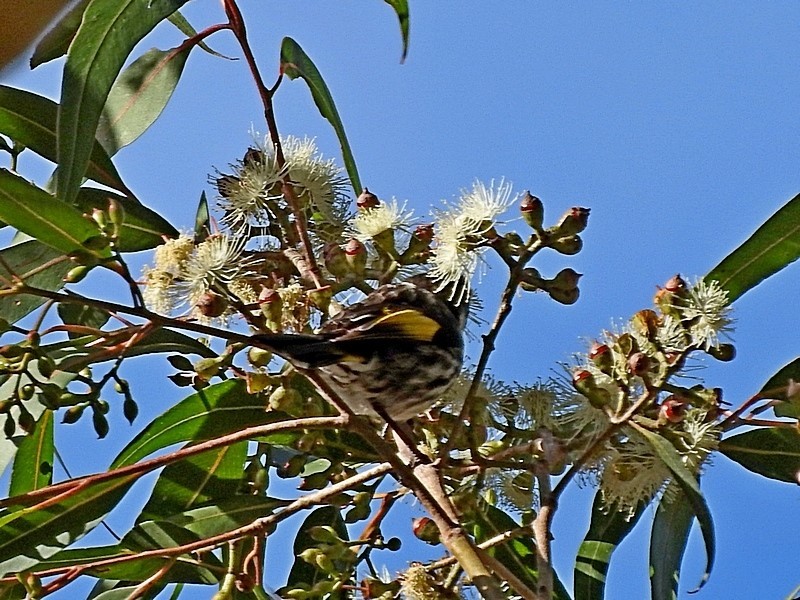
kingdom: Animalia
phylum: Chordata
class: Aves
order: Passeriformes
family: Meliphagidae
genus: Phylidonyris
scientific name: Phylidonyris novaehollandiae
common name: New holland honeyeater
